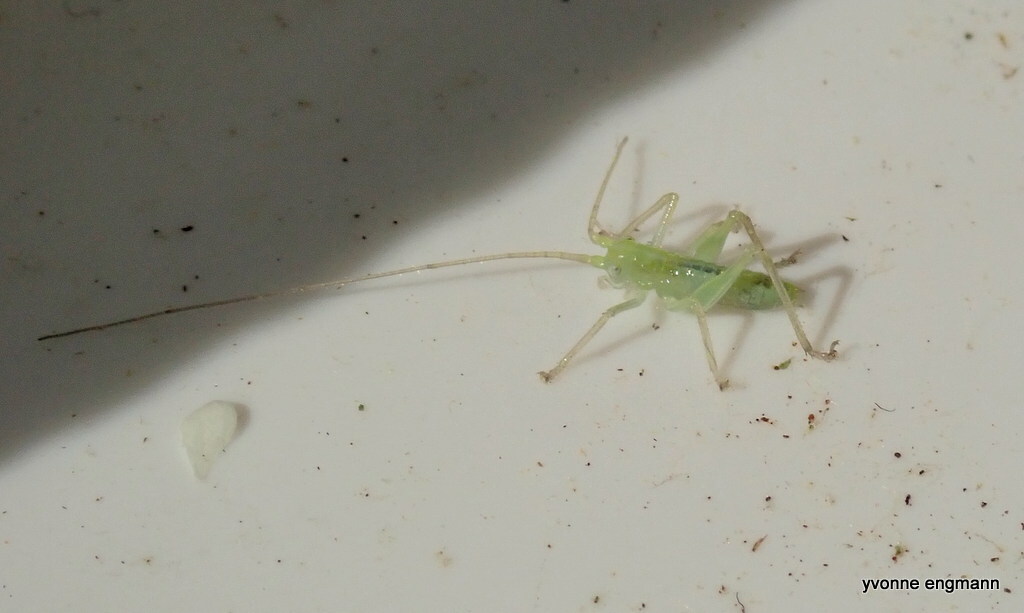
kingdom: Animalia
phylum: Arthropoda
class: Insecta
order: Orthoptera
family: Tettigoniidae
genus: Meconema
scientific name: Meconema thalassinum
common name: Oak bush-cricket
